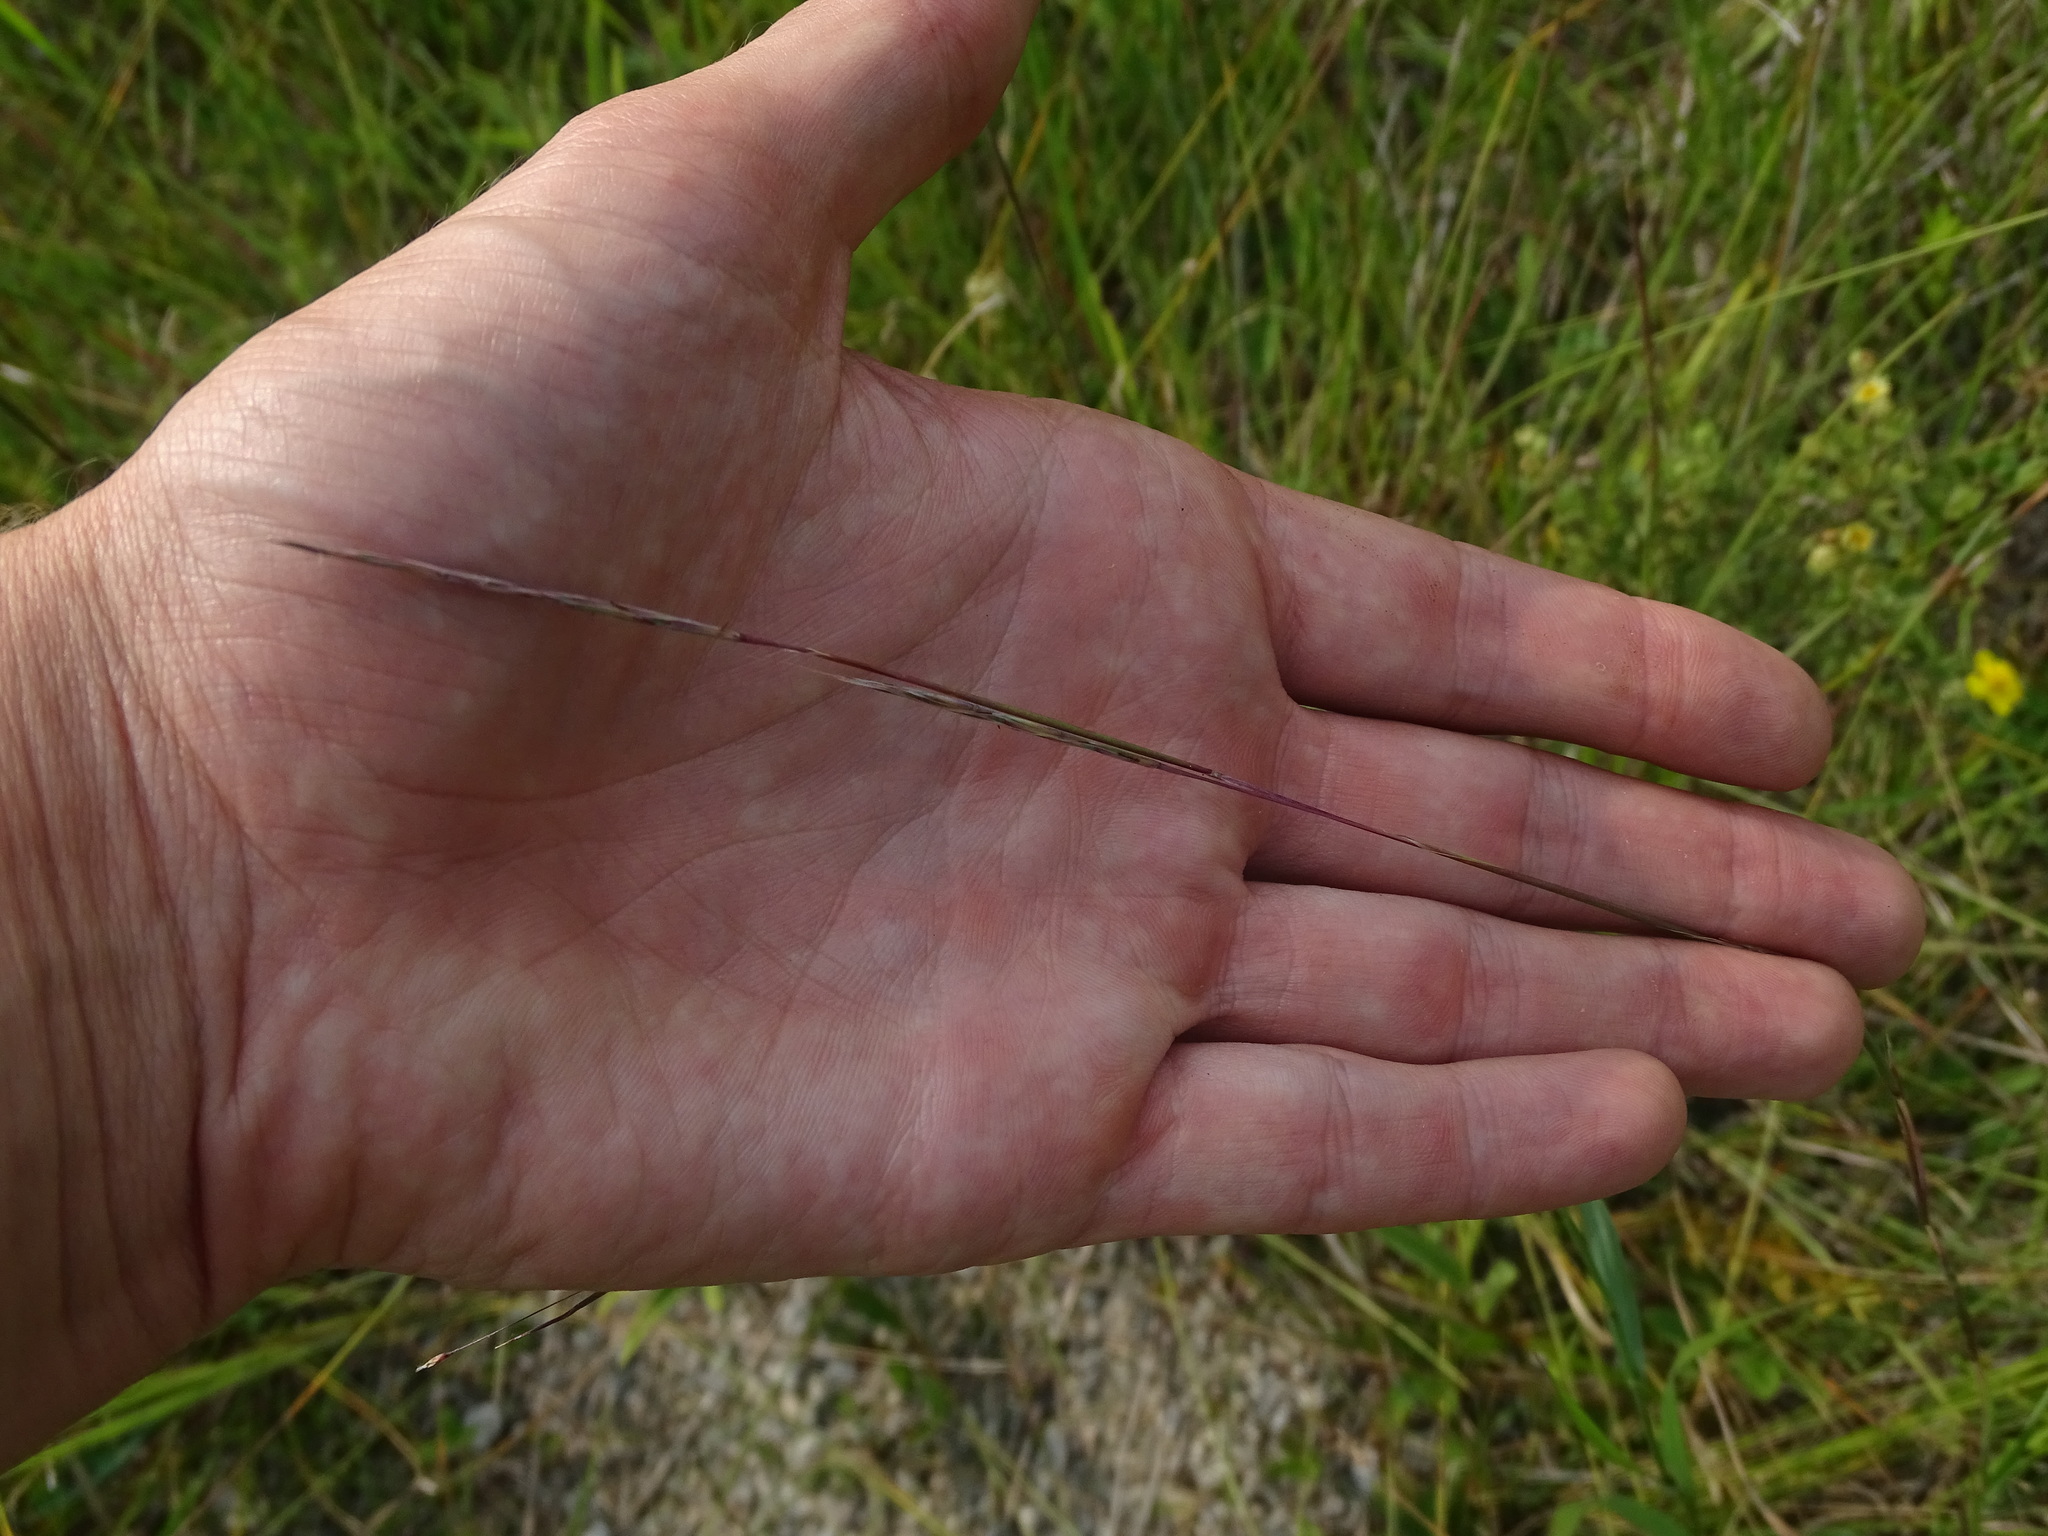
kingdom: Plantae
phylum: Tracheophyta
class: Liliopsida
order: Poales
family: Poaceae
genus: Schizachyrium
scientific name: Schizachyrium scoparium
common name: Little bluestem
